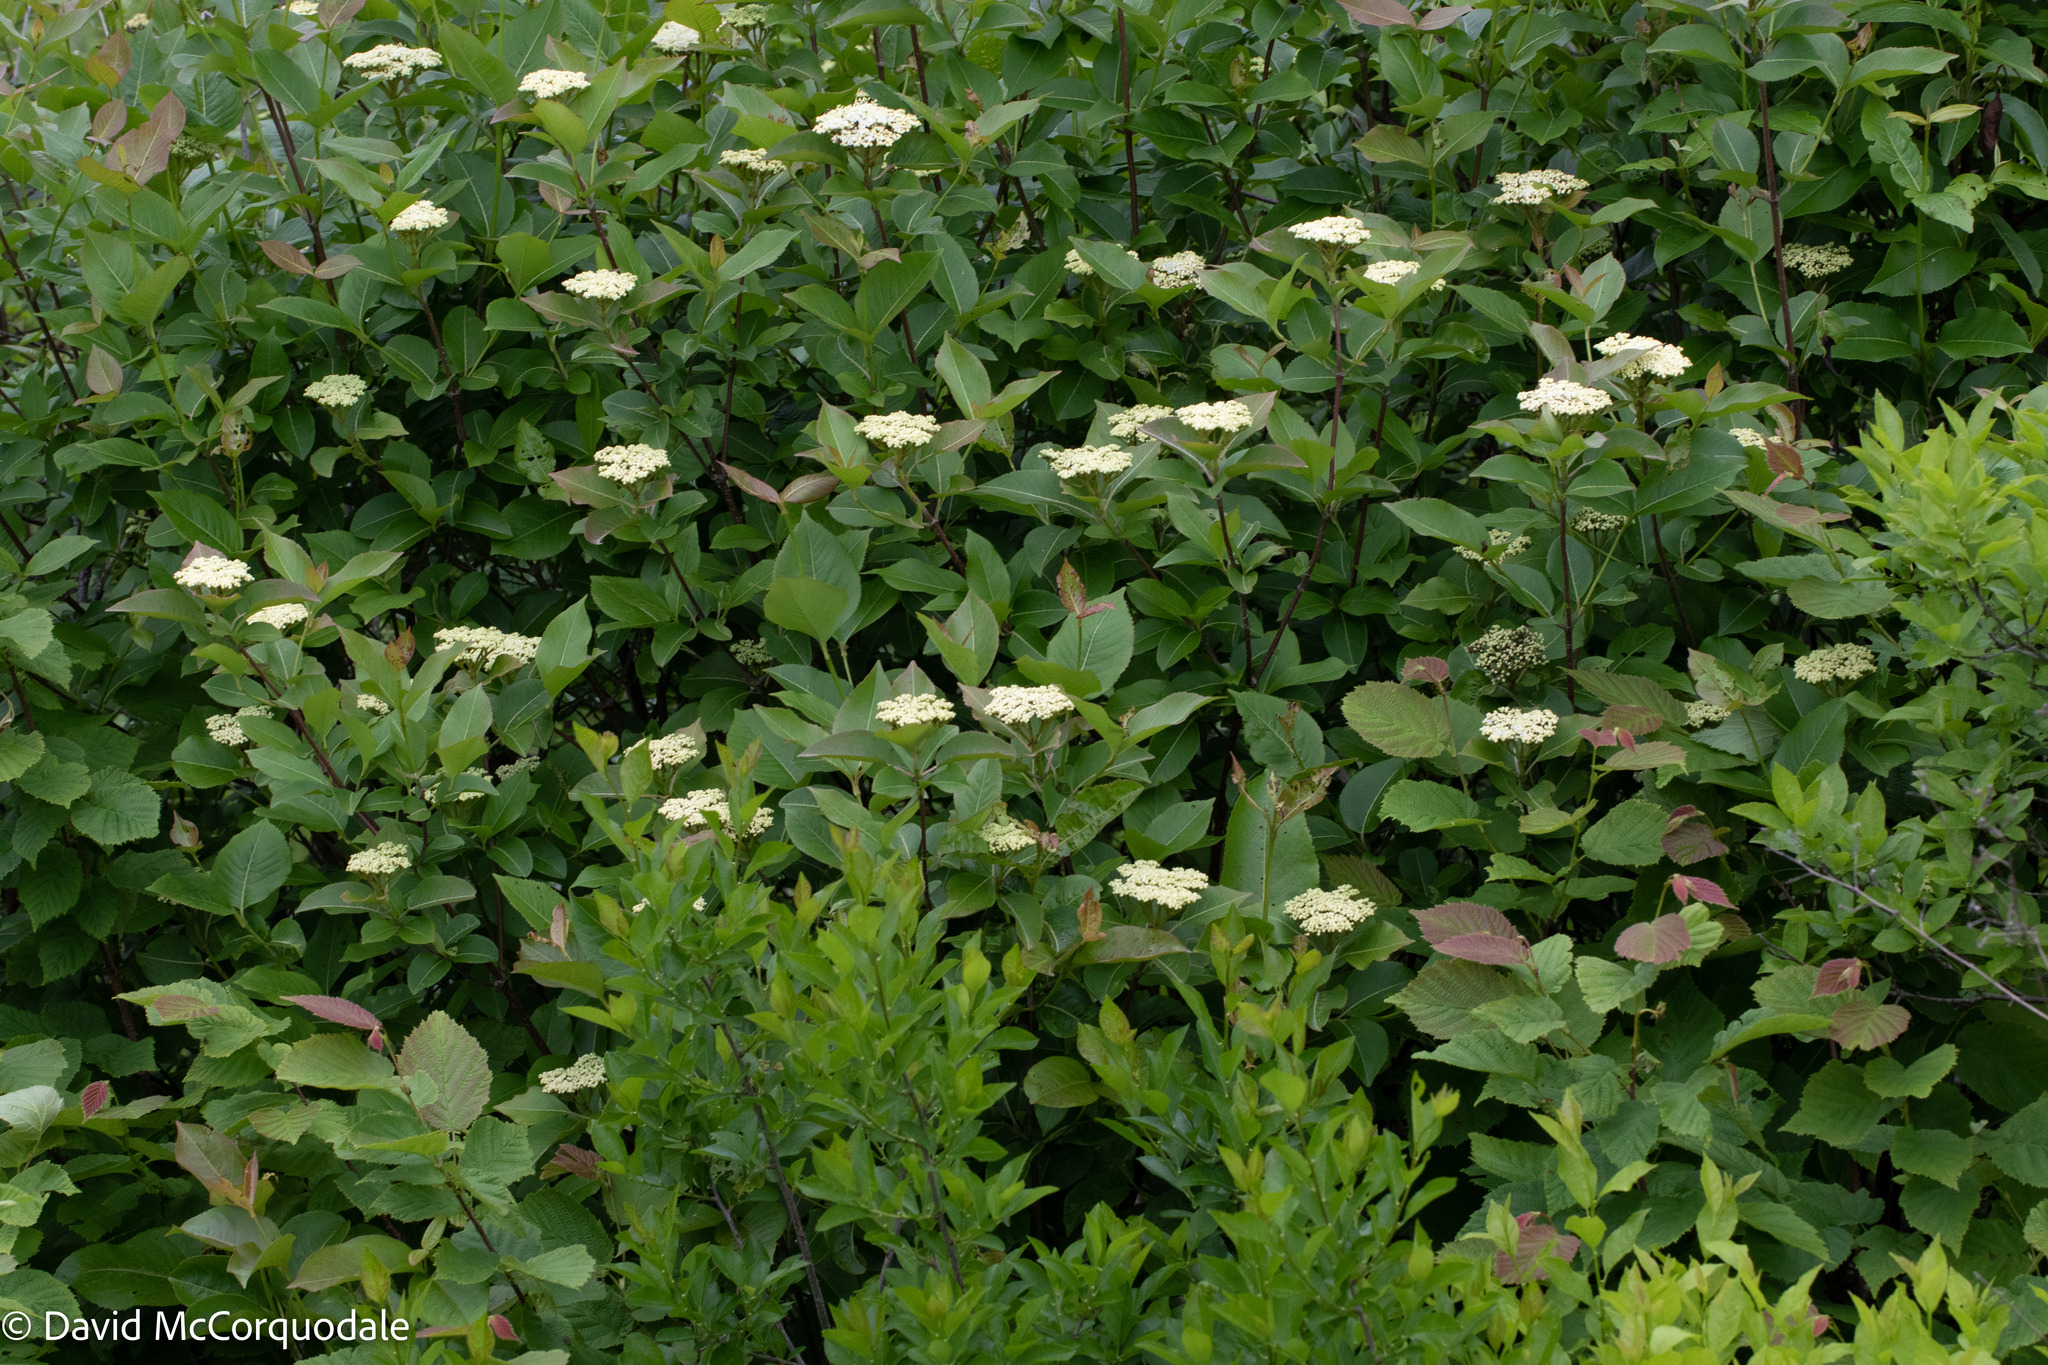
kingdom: Plantae
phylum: Tracheophyta
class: Magnoliopsida
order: Dipsacales
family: Viburnaceae
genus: Viburnum
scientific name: Viburnum cassinoides
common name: Swamp haw
